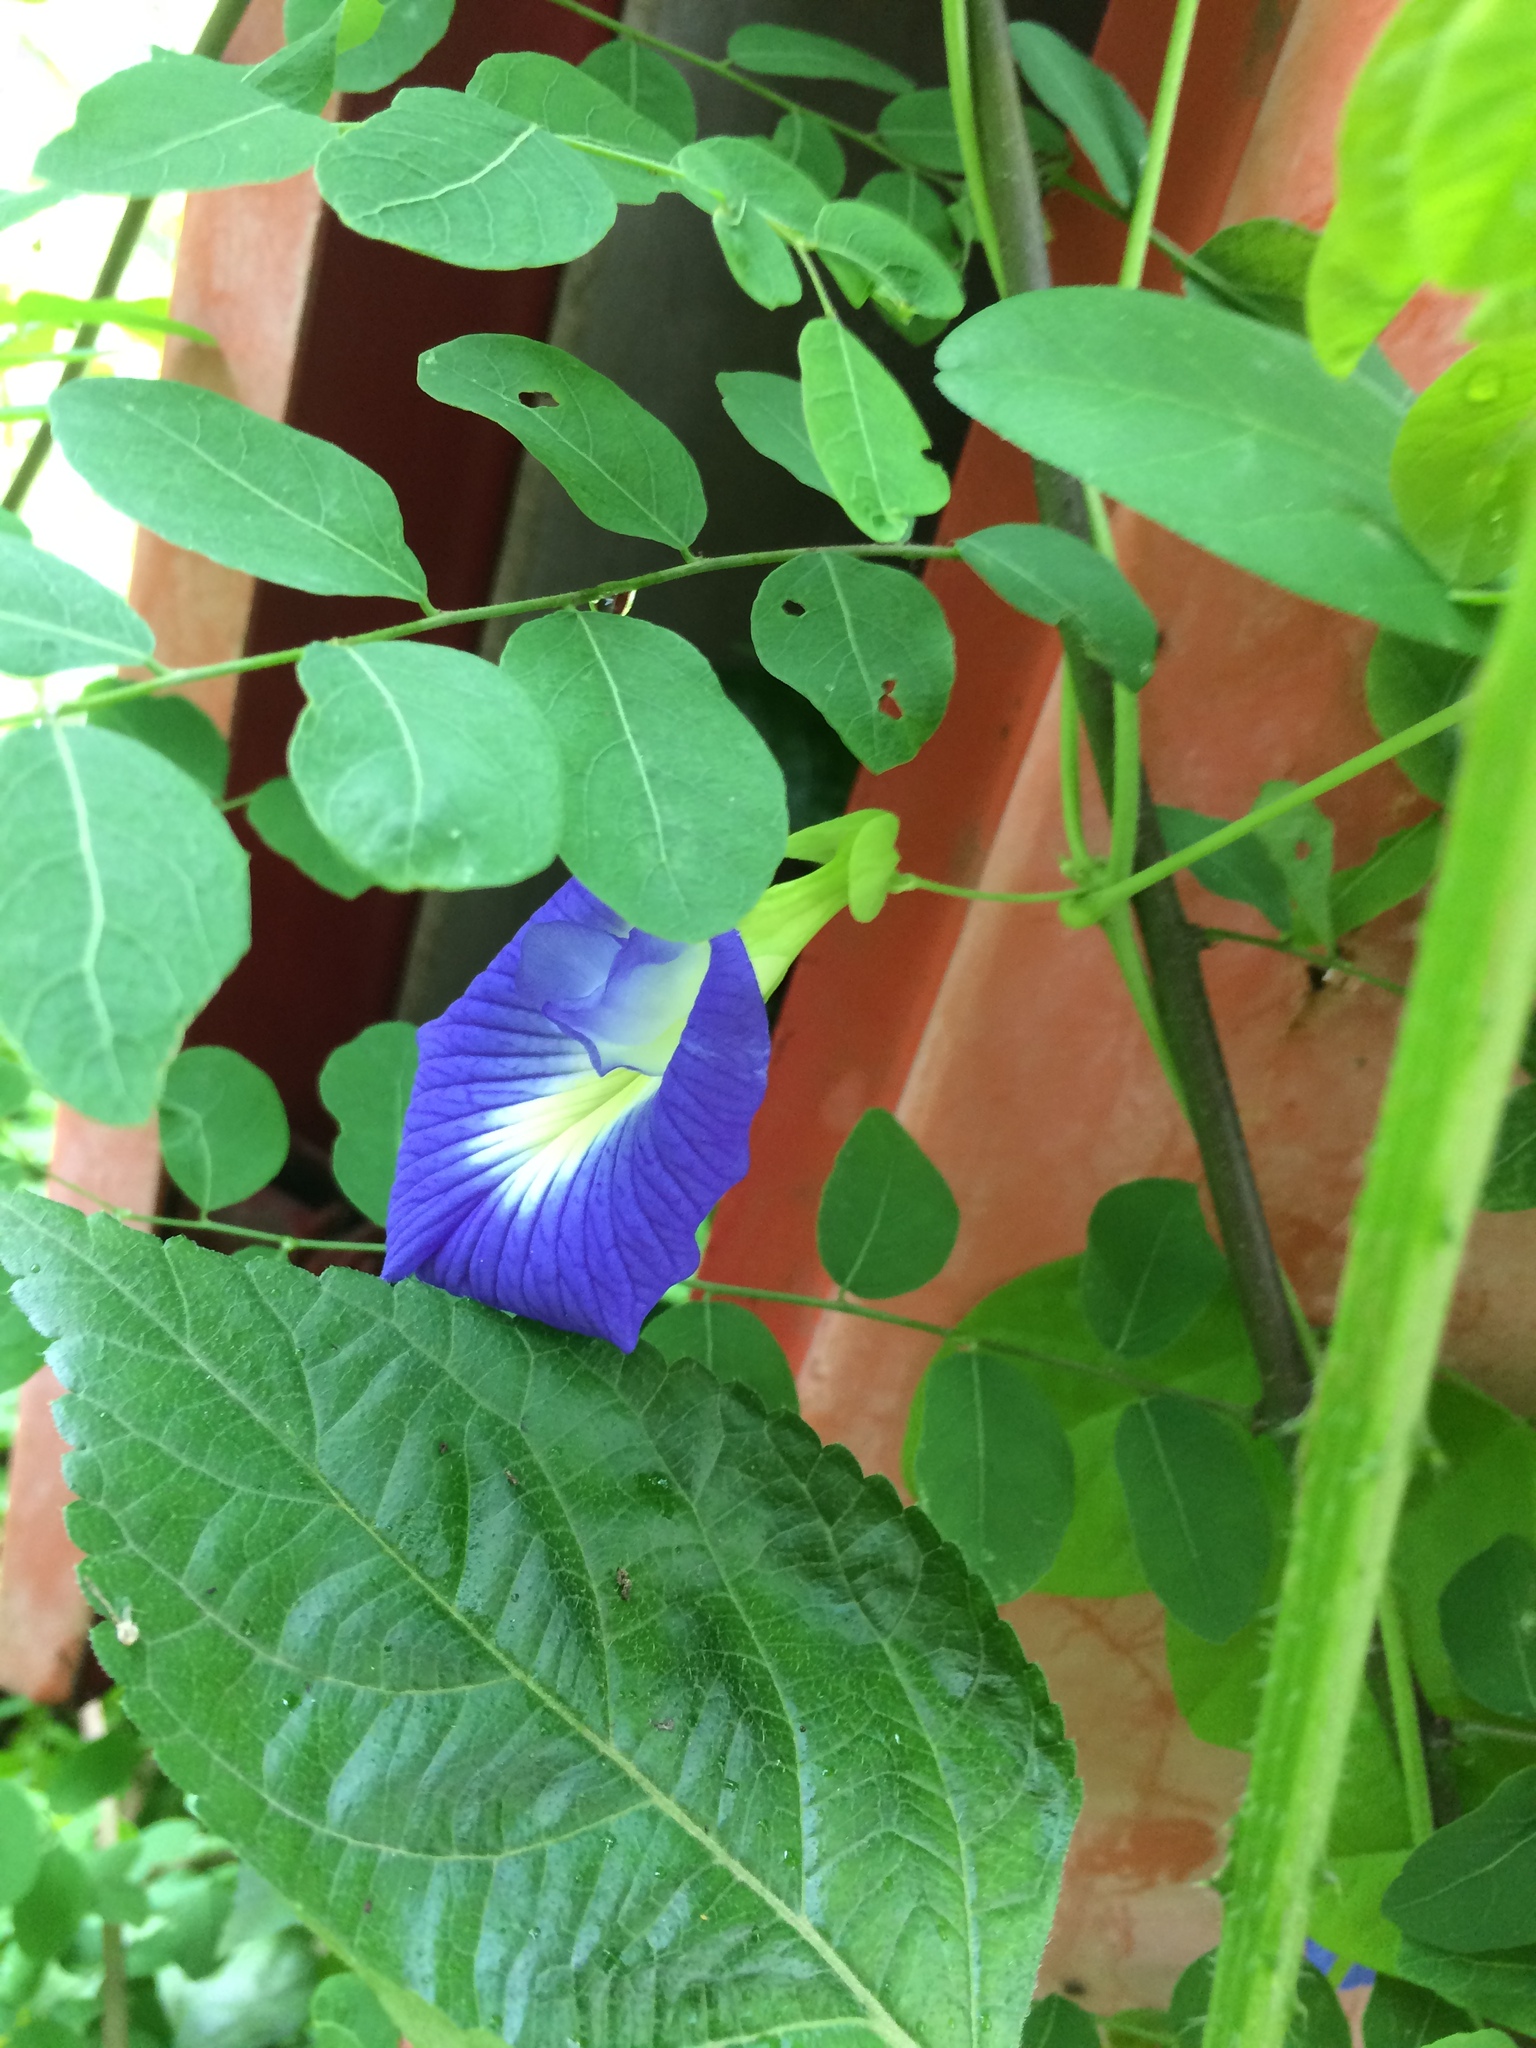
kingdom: Plantae
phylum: Tracheophyta
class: Magnoliopsida
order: Fabales
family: Fabaceae
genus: Clitoria
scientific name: Clitoria ternatea
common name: Asian pigeonwings
